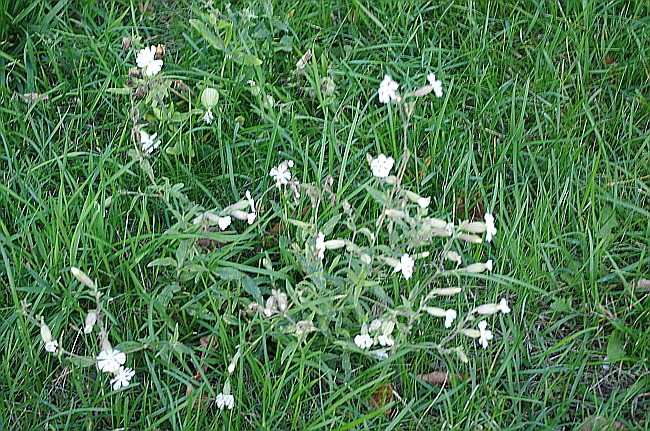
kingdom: Plantae
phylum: Tracheophyta
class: Magnoliopsida
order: Caryophyllales
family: Caryophyllaceae
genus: Silene
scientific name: Silene latifolia
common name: White campion
